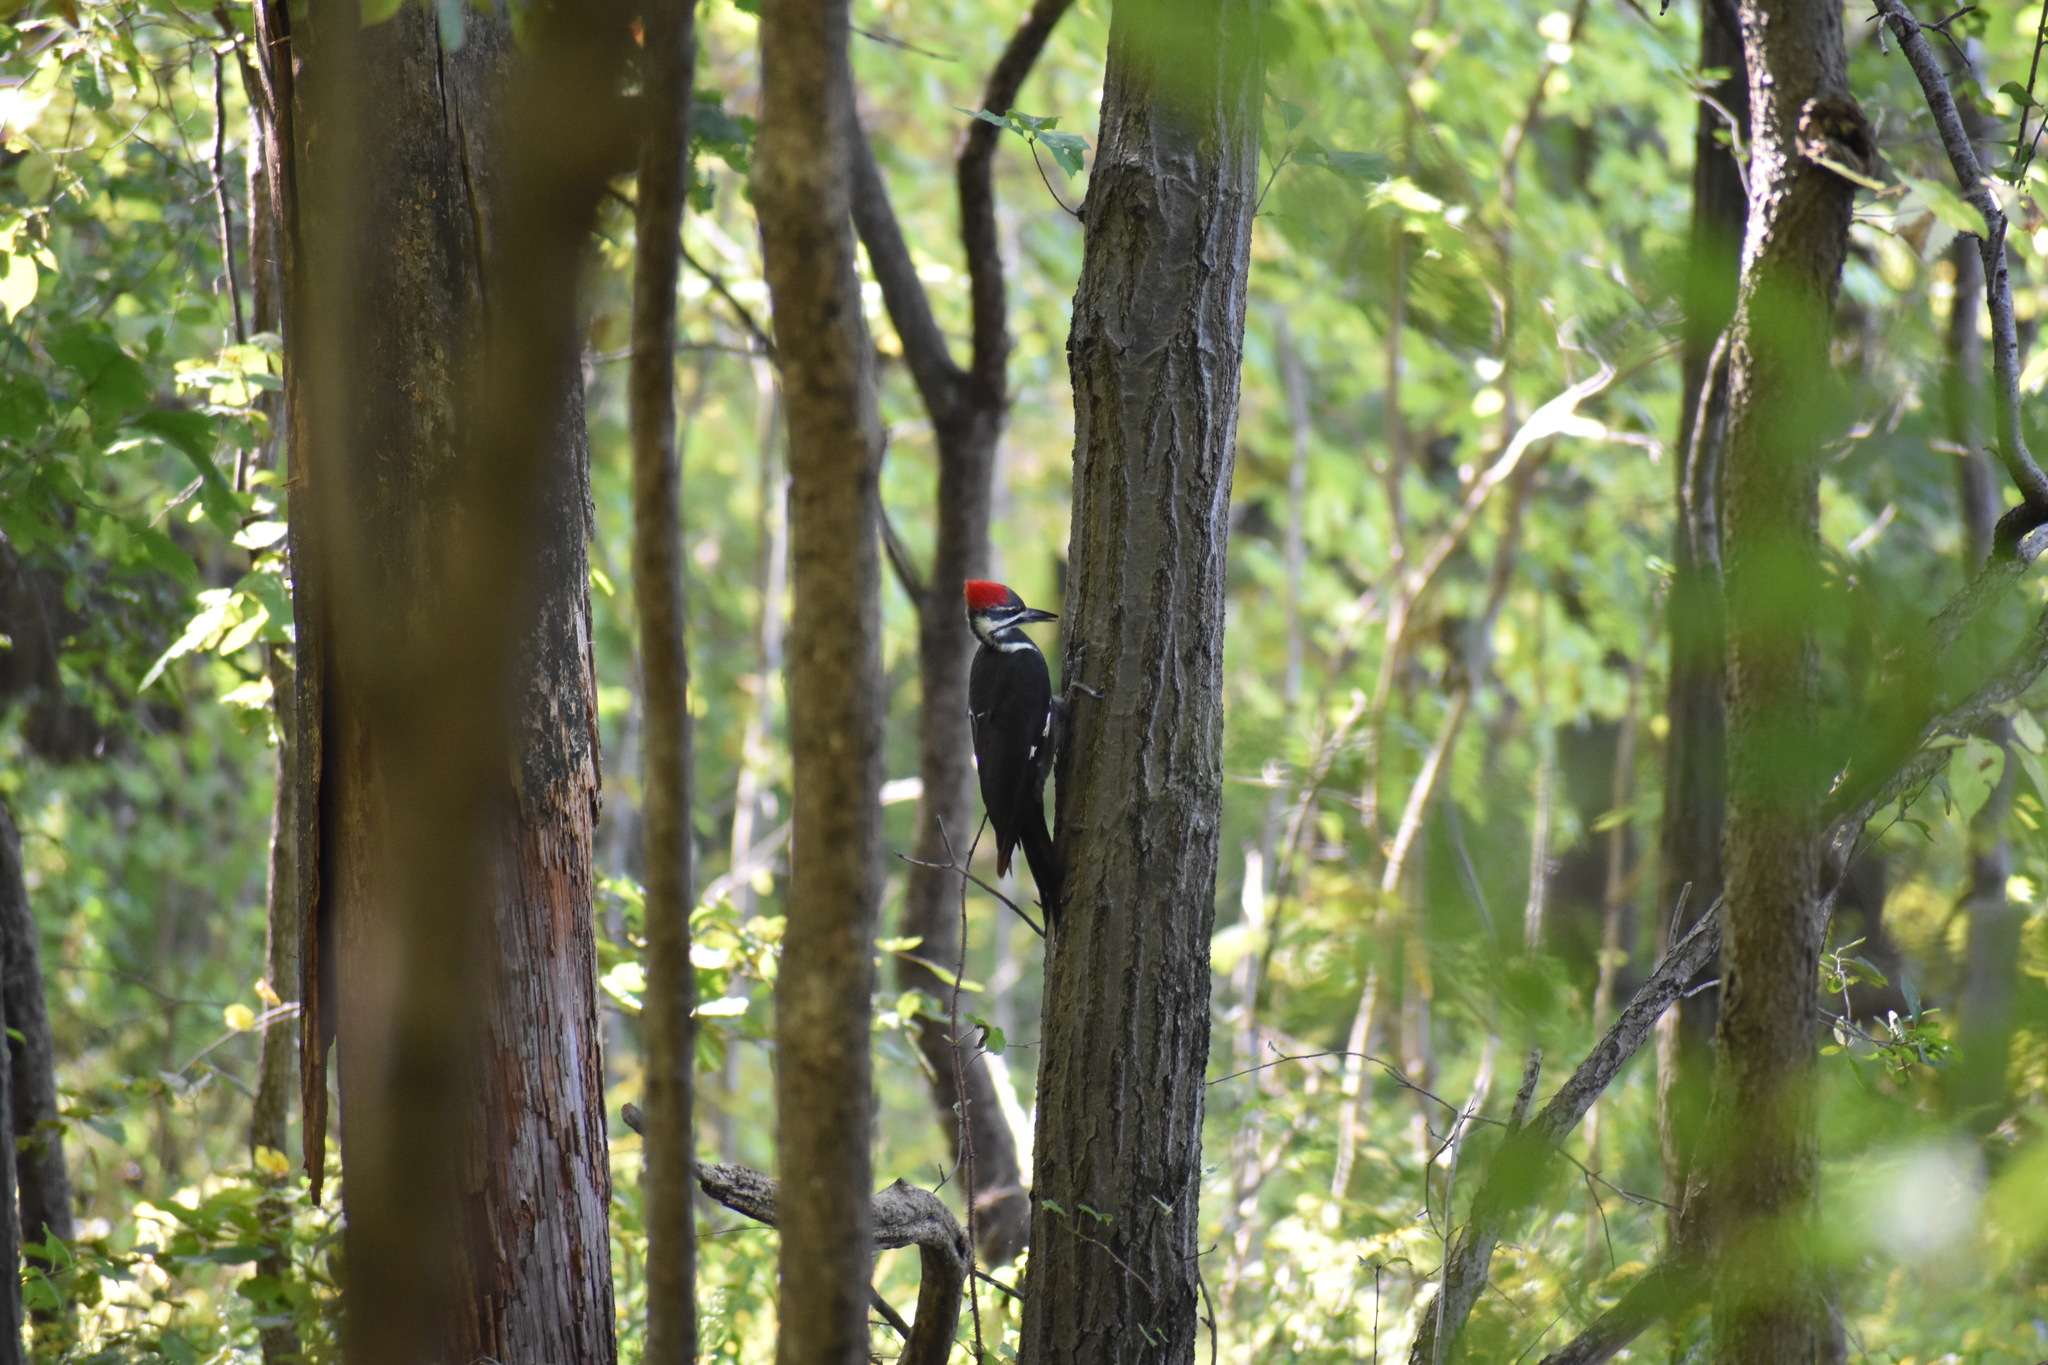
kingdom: Animalia
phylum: Chordata
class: Aves
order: Piciformes
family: Picidae
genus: Dryocopus
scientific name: Dryocopus pileatus
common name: Pileated woodpecker
